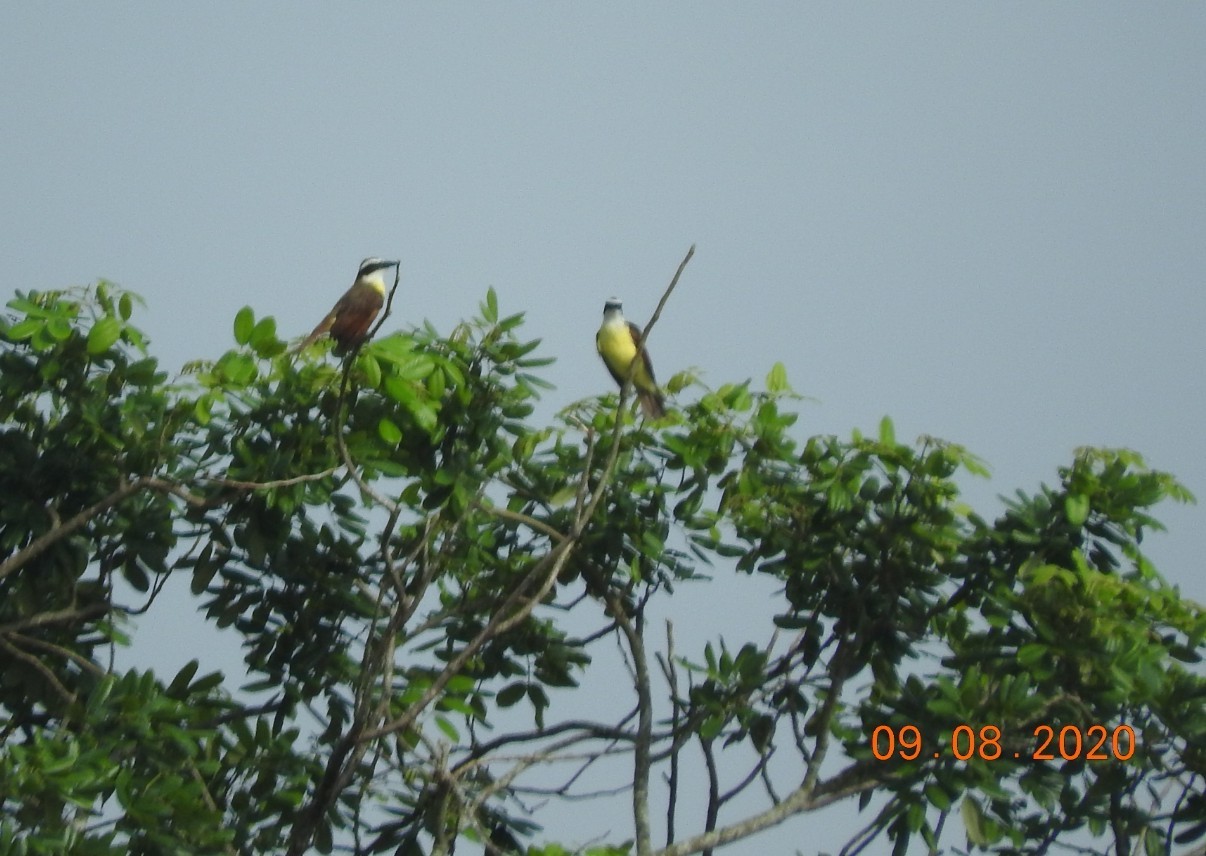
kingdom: Animalia
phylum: Chordata
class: Aves
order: Passeriformes
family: Tyrannidae
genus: Pitangus
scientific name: Pitangus sulphuratus
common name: Great kiskadee
